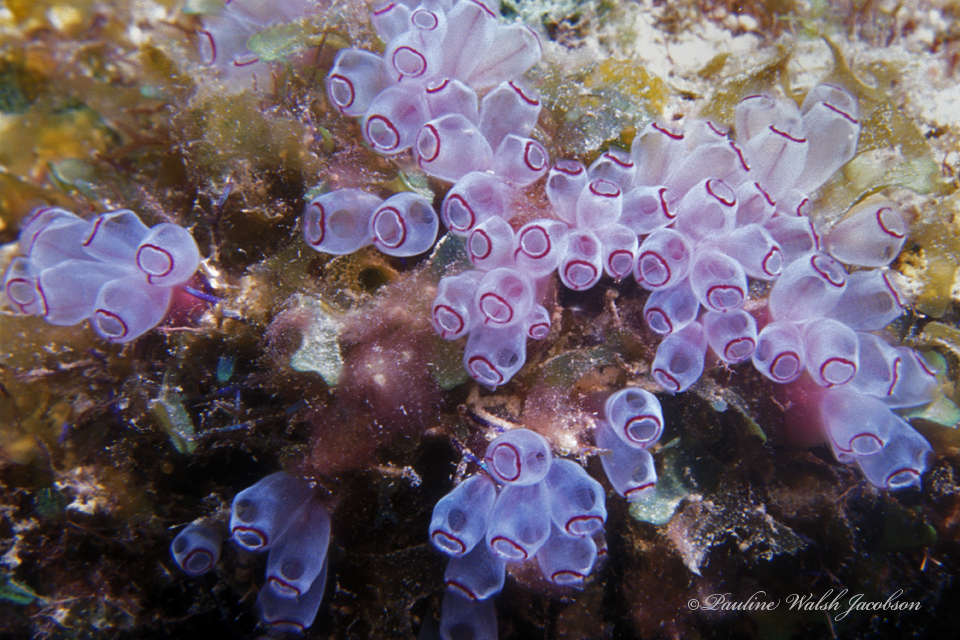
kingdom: Animalia
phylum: Chordata
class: Ascidiacea
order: Aplousobranchia
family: Clavelinidae
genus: Clavelina
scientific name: Clavelina picta
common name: Painted tunicate
